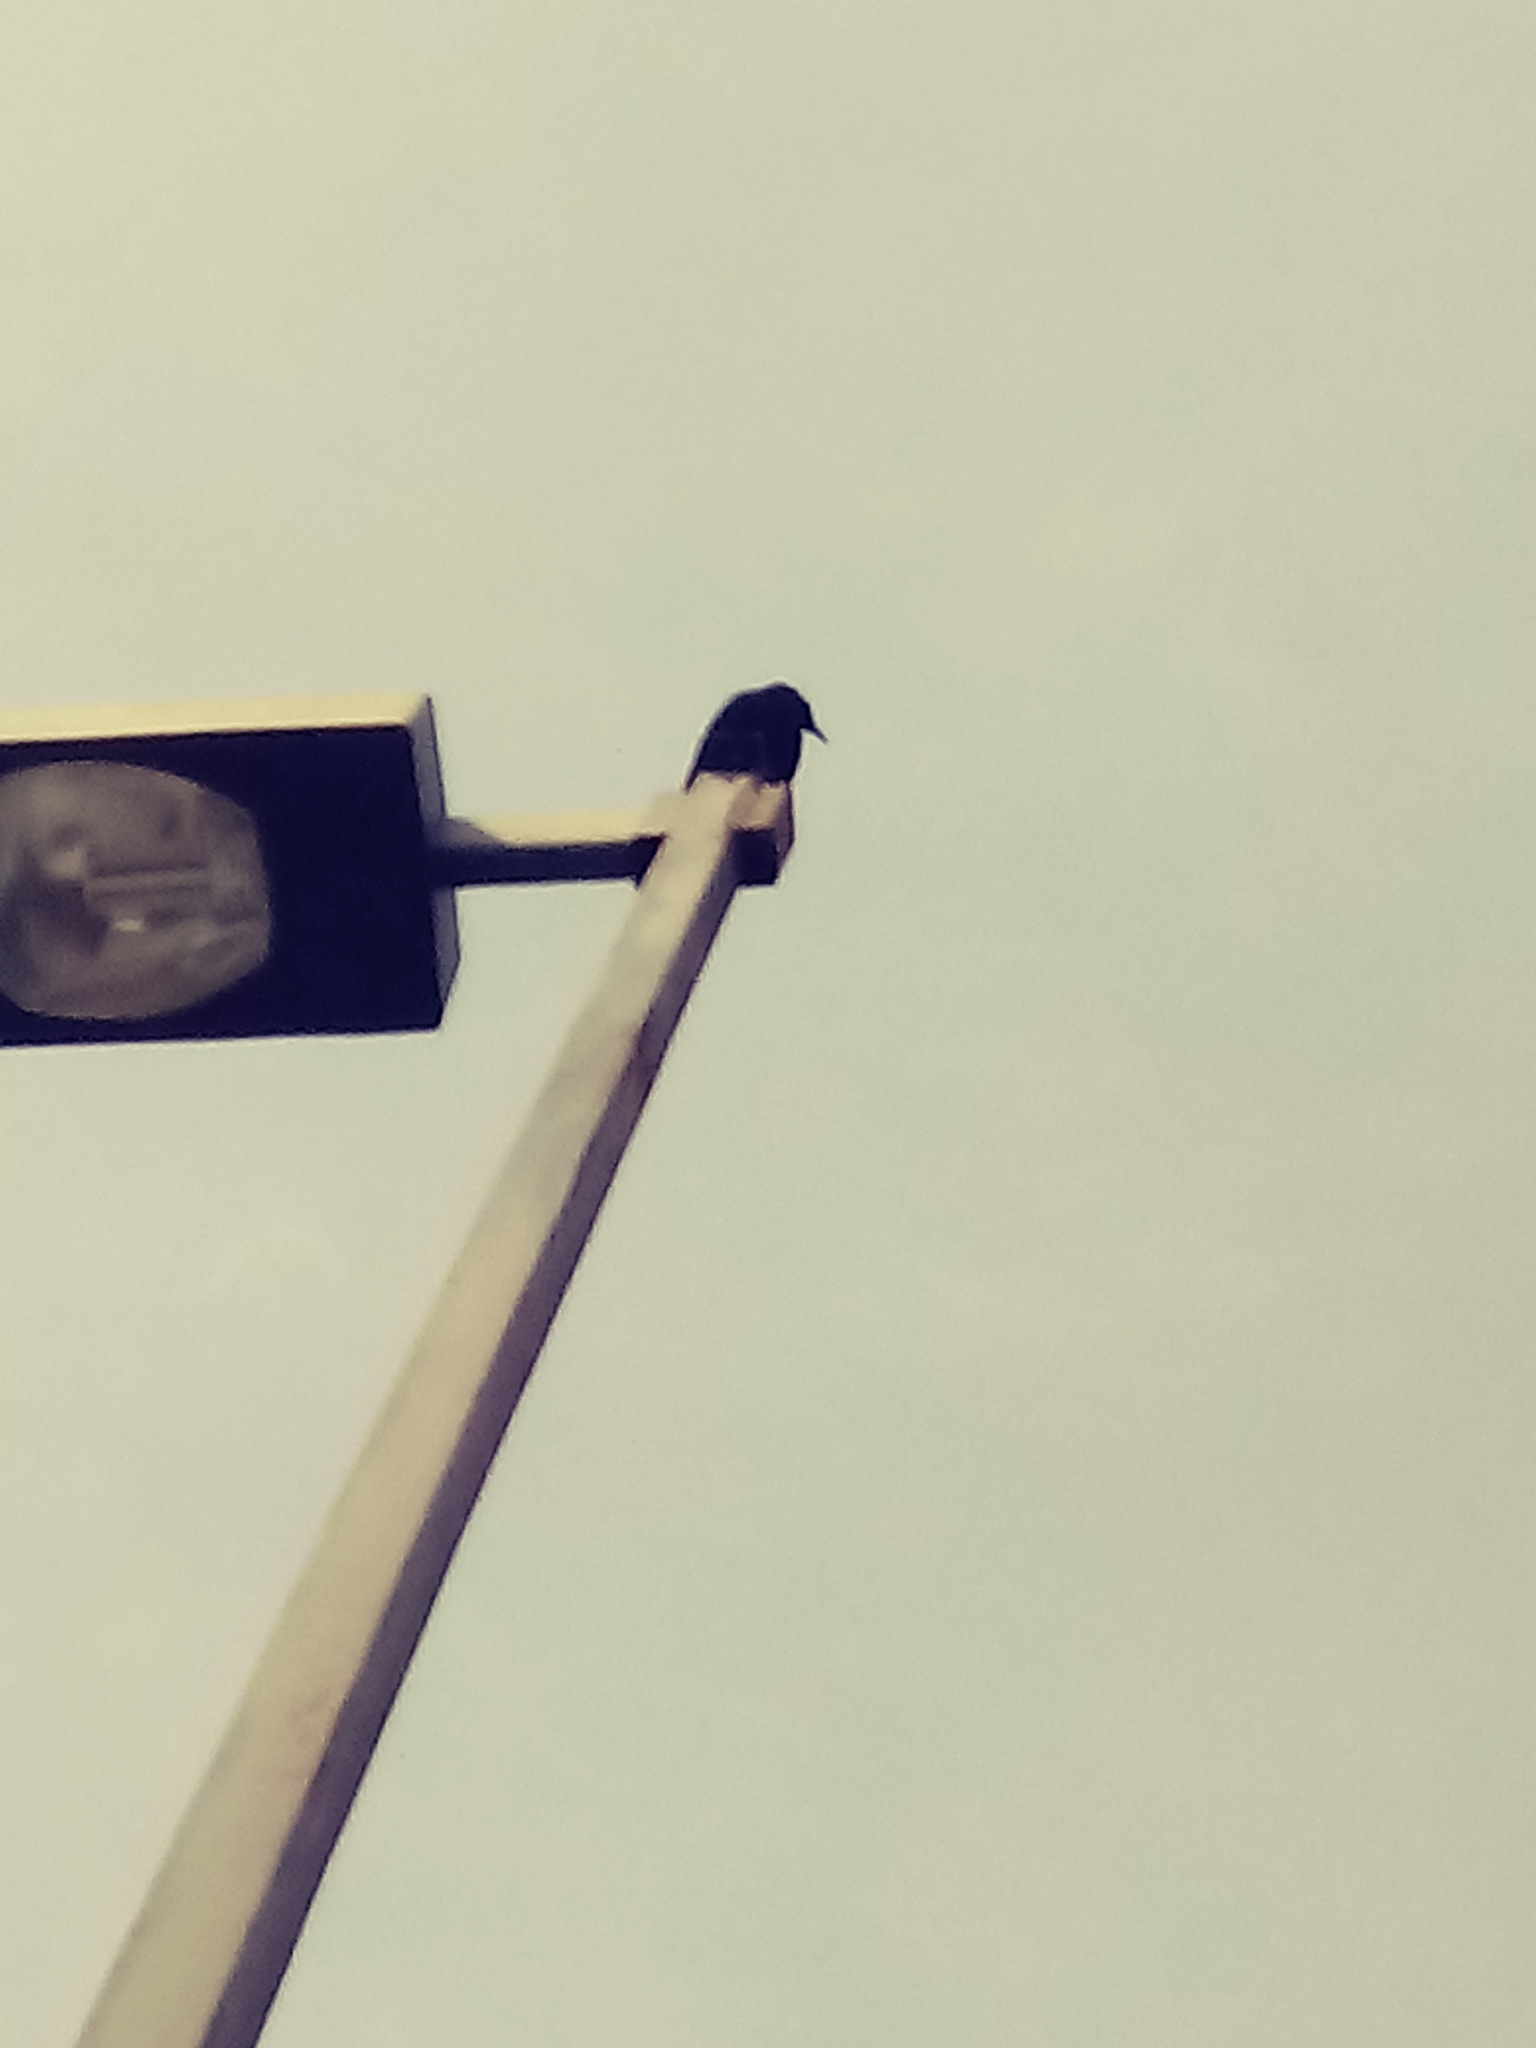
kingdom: Animalia
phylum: Chordata
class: Aves
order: Passeriformes
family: Corvidae
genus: Corvus
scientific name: Corvus brachyrhynchos
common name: American crow
